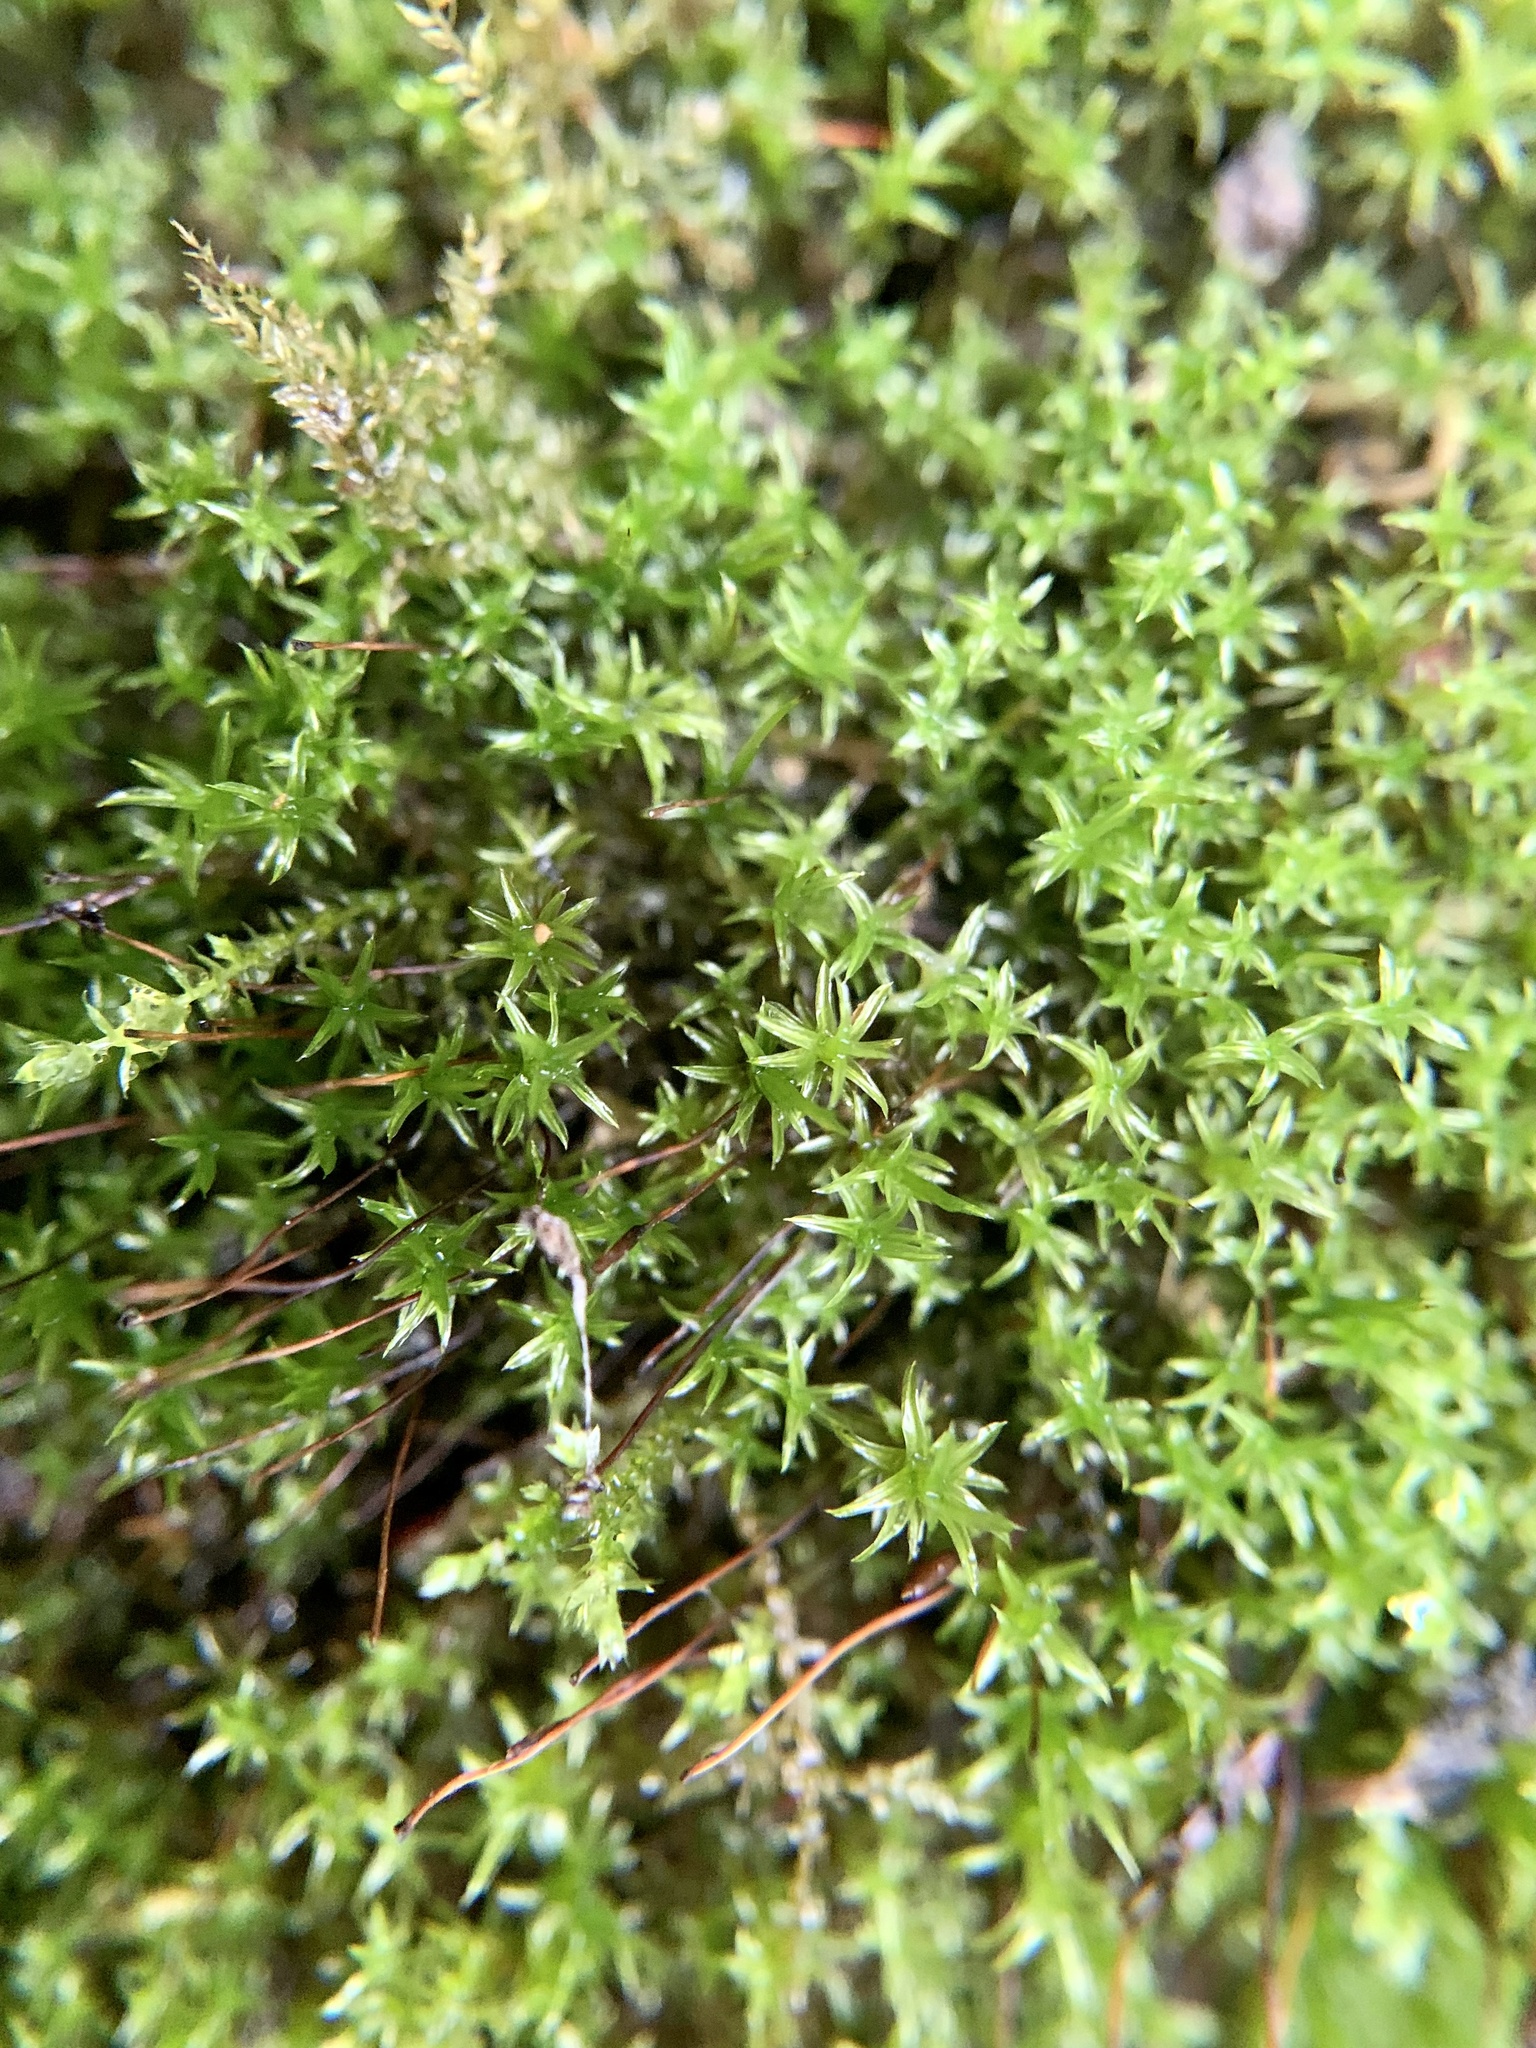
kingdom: Plantae
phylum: Bryophyta
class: Bryopsida
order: Dicranales
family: Ditrichaceae
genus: Ceratodon
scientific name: Ceratodon purpureus
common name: Redshank
